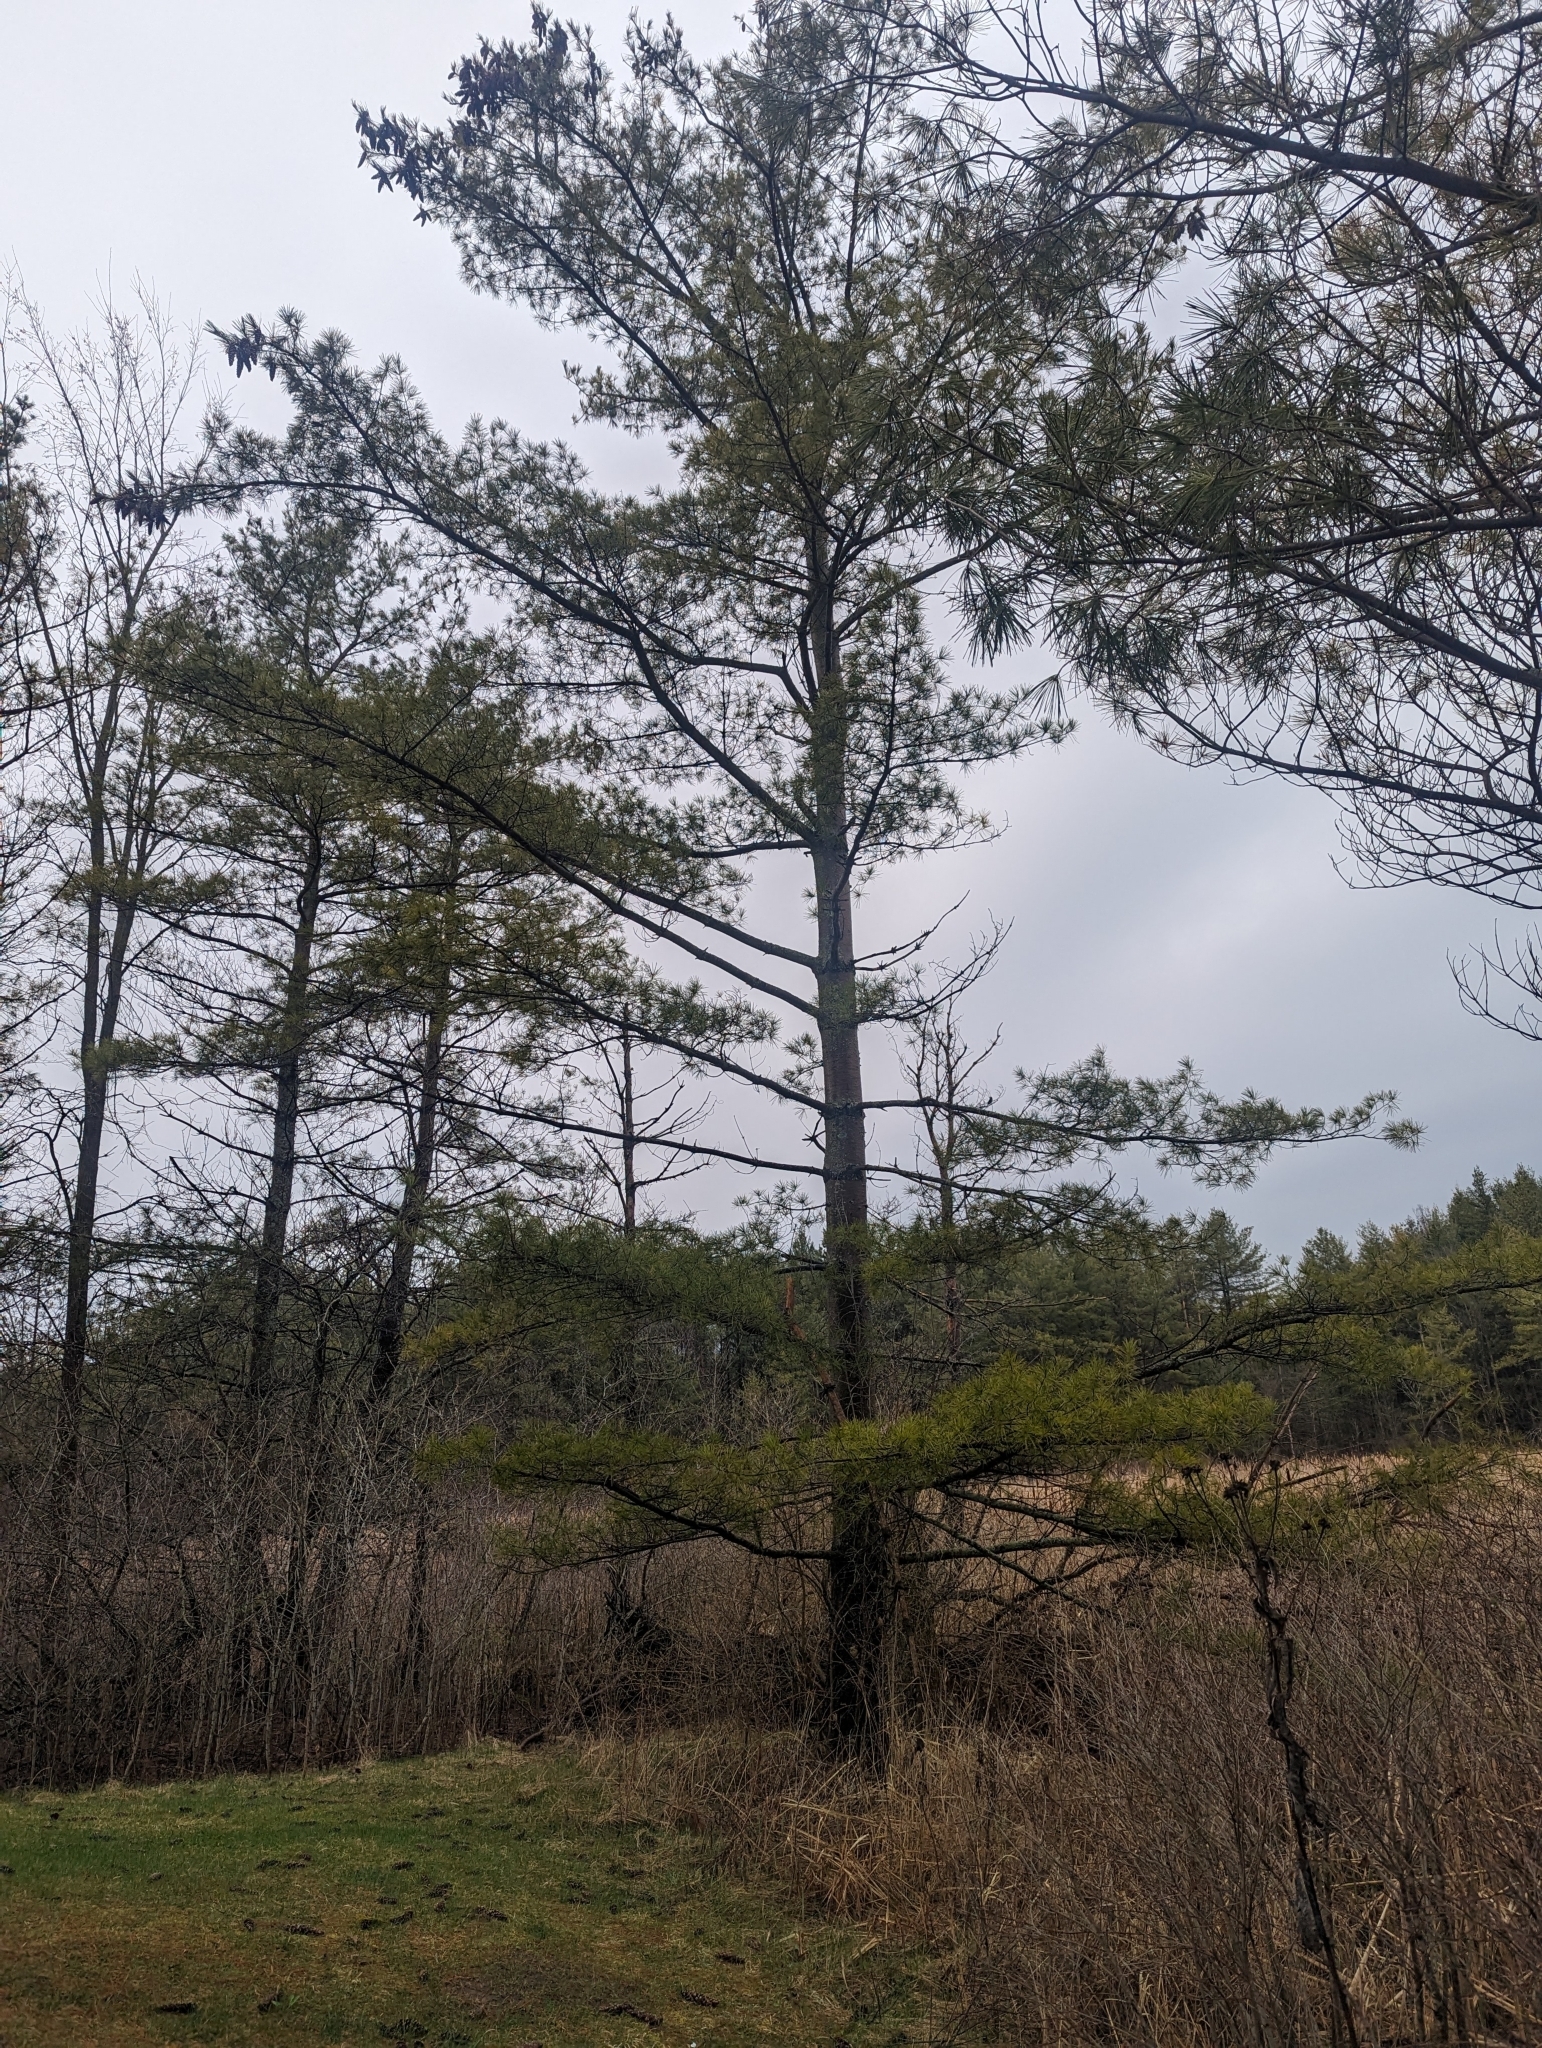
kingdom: Plantae
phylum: Tracheophyta
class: Pinopsida
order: Pinales
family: Pinaceae
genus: Pinus
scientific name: Pinus strobus
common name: Weymouth pine
